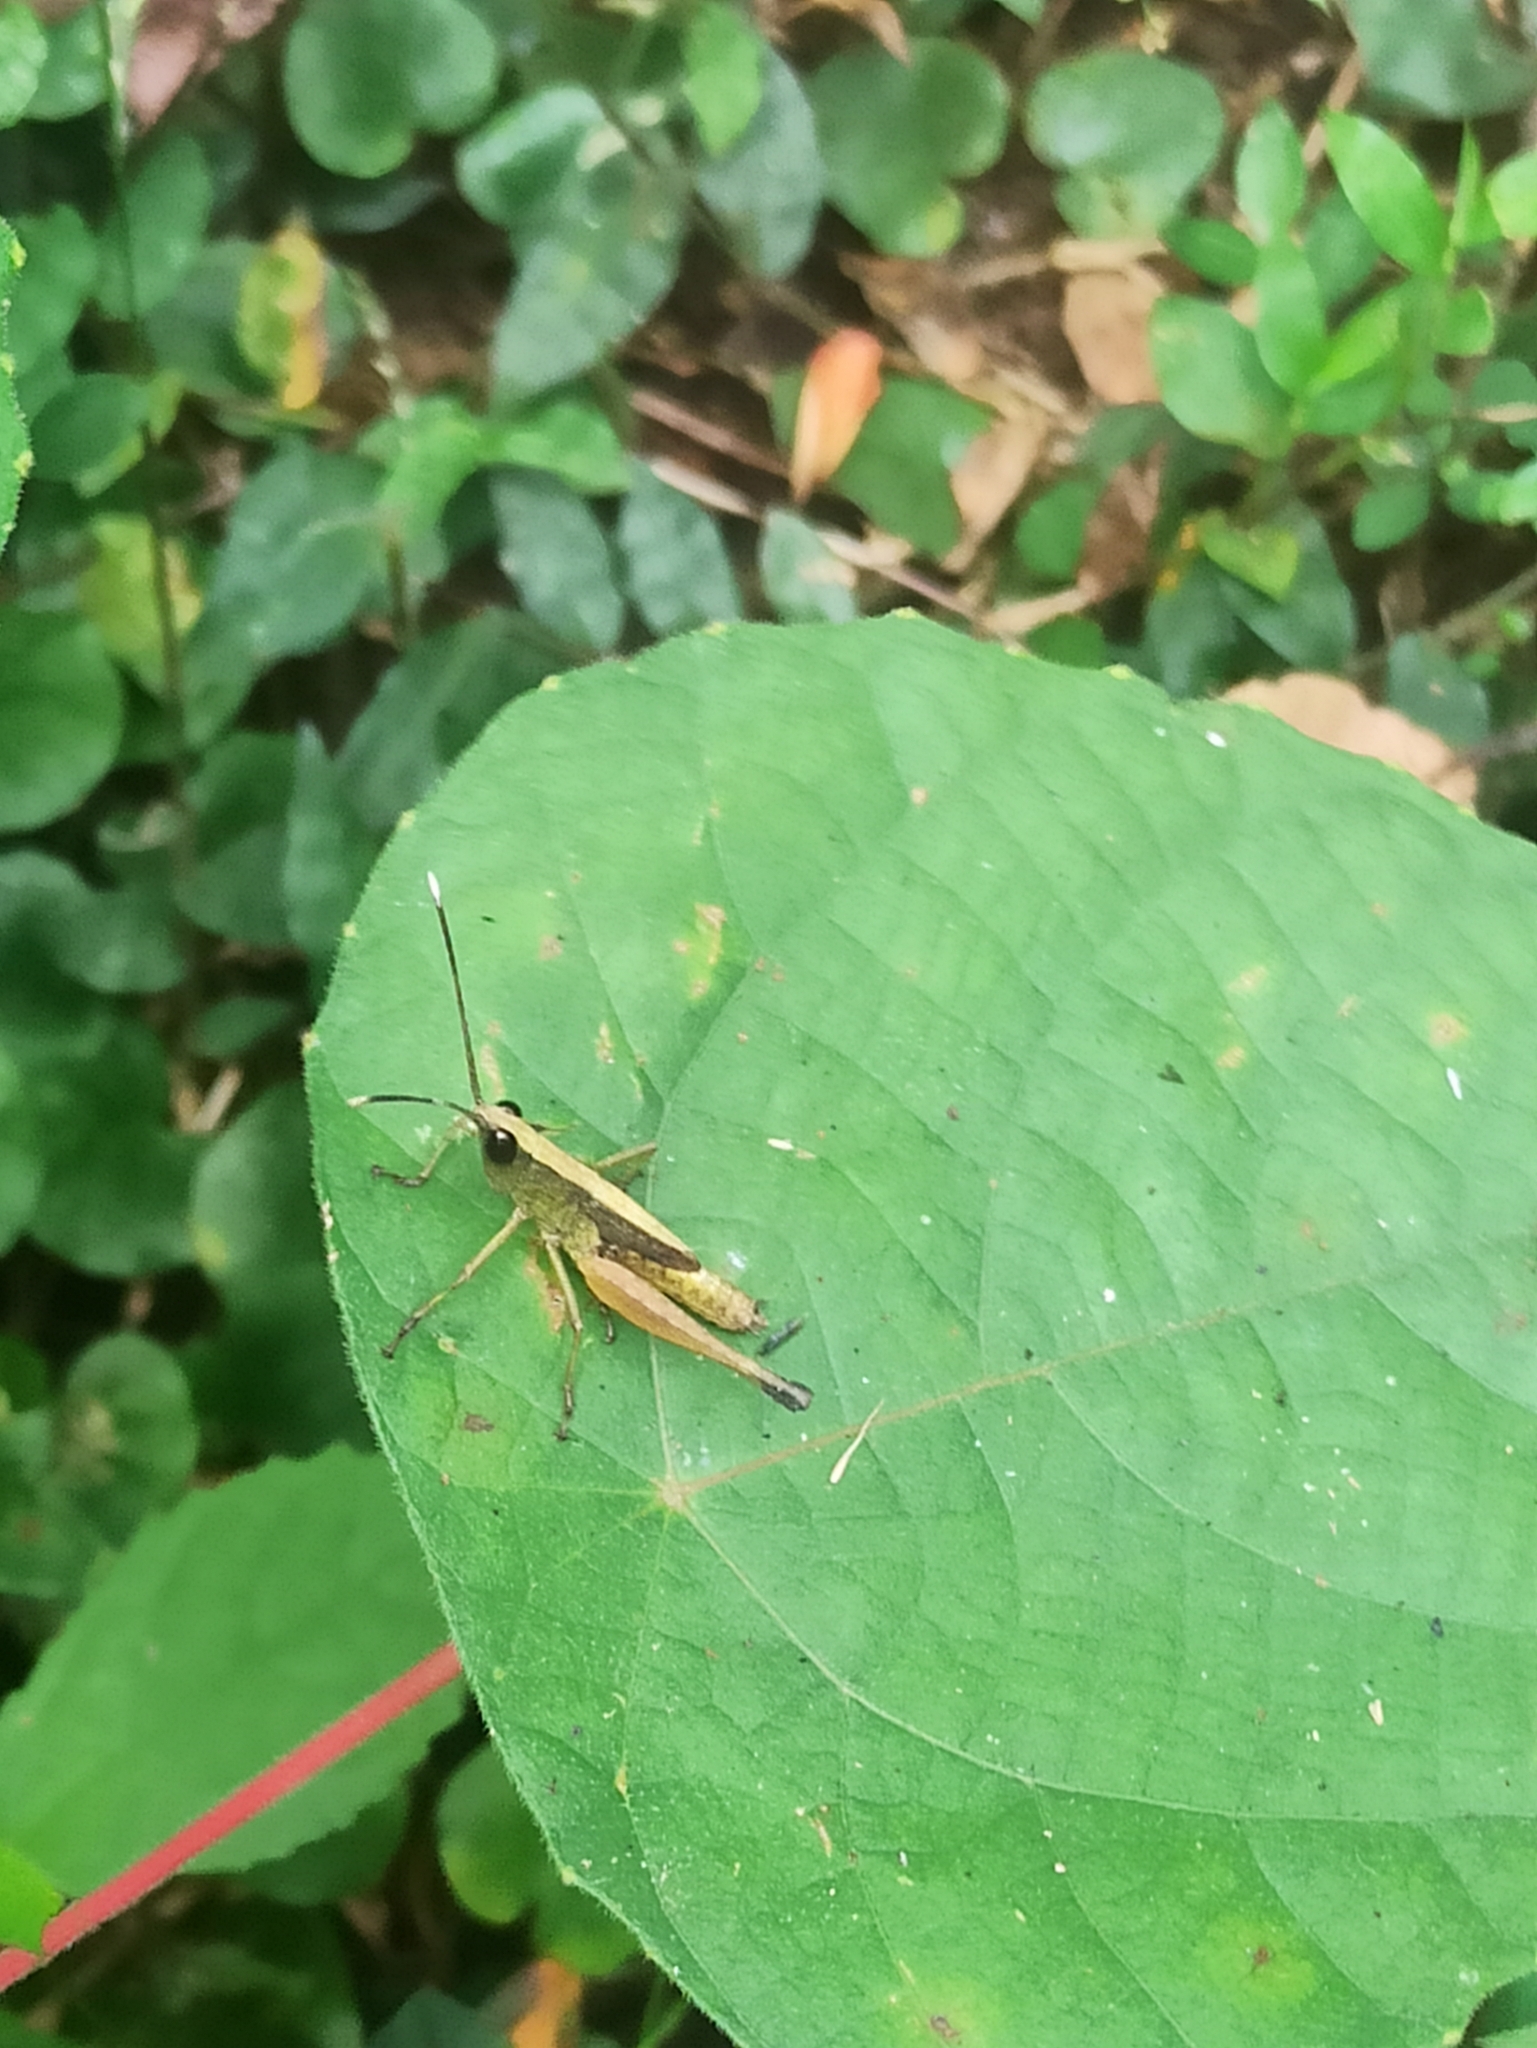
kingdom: Animalia
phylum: Arthropoda
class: Insecta
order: Orthoptera
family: Acrididae
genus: Phlaeoba
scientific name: Phlaeoba angustidorsis
